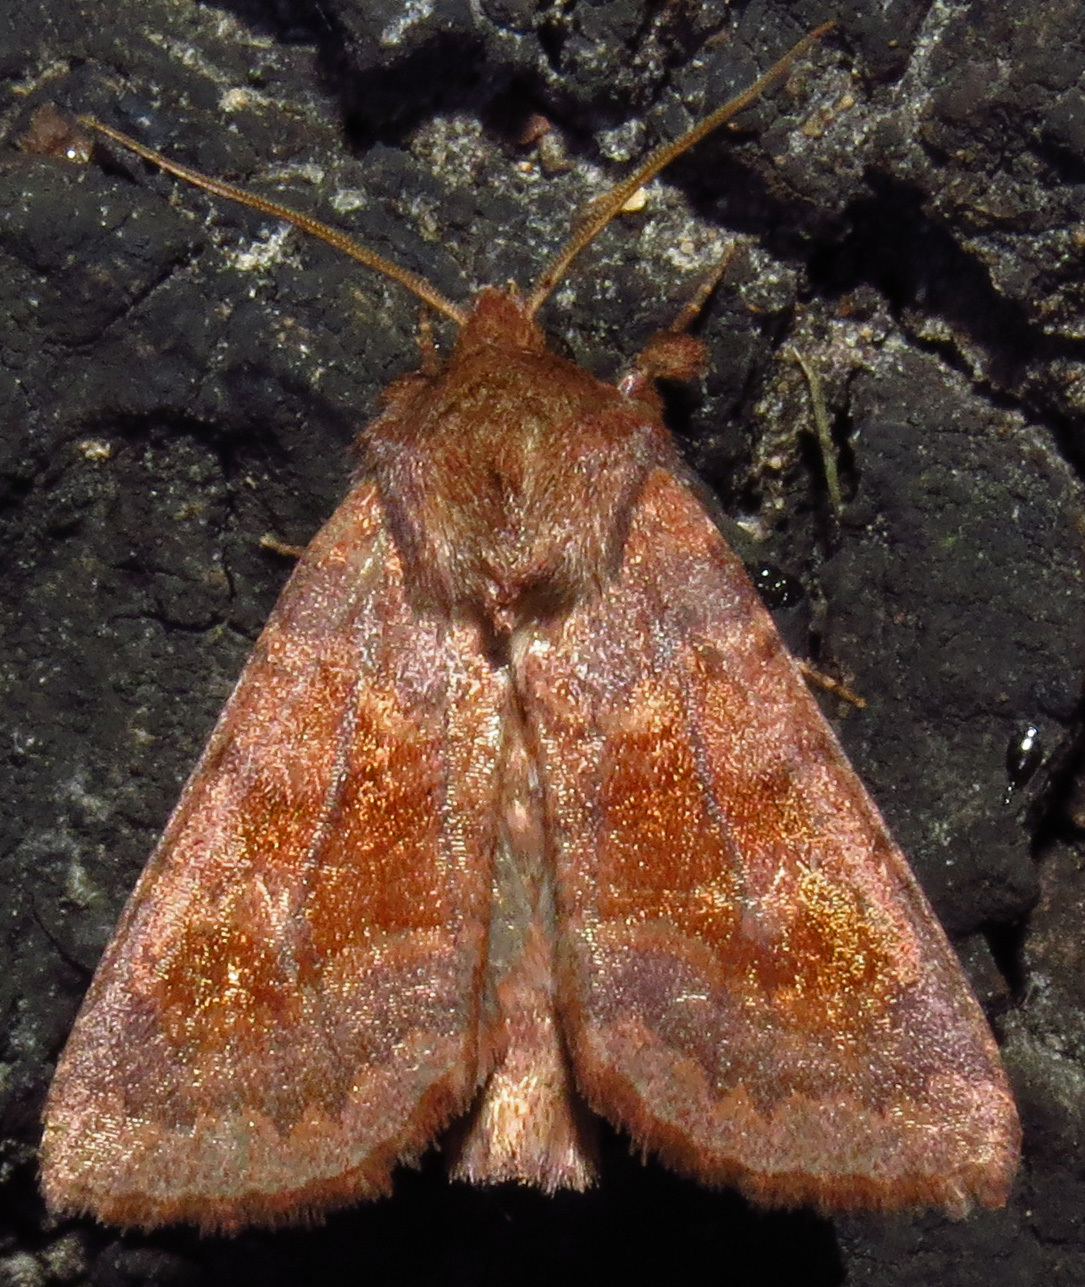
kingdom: Animalia
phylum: Arthropoda
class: Insecta
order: Lepidoptera
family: Noctuidae
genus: Nephelodes
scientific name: Nephelodes minians
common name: Bronzed cutworm
